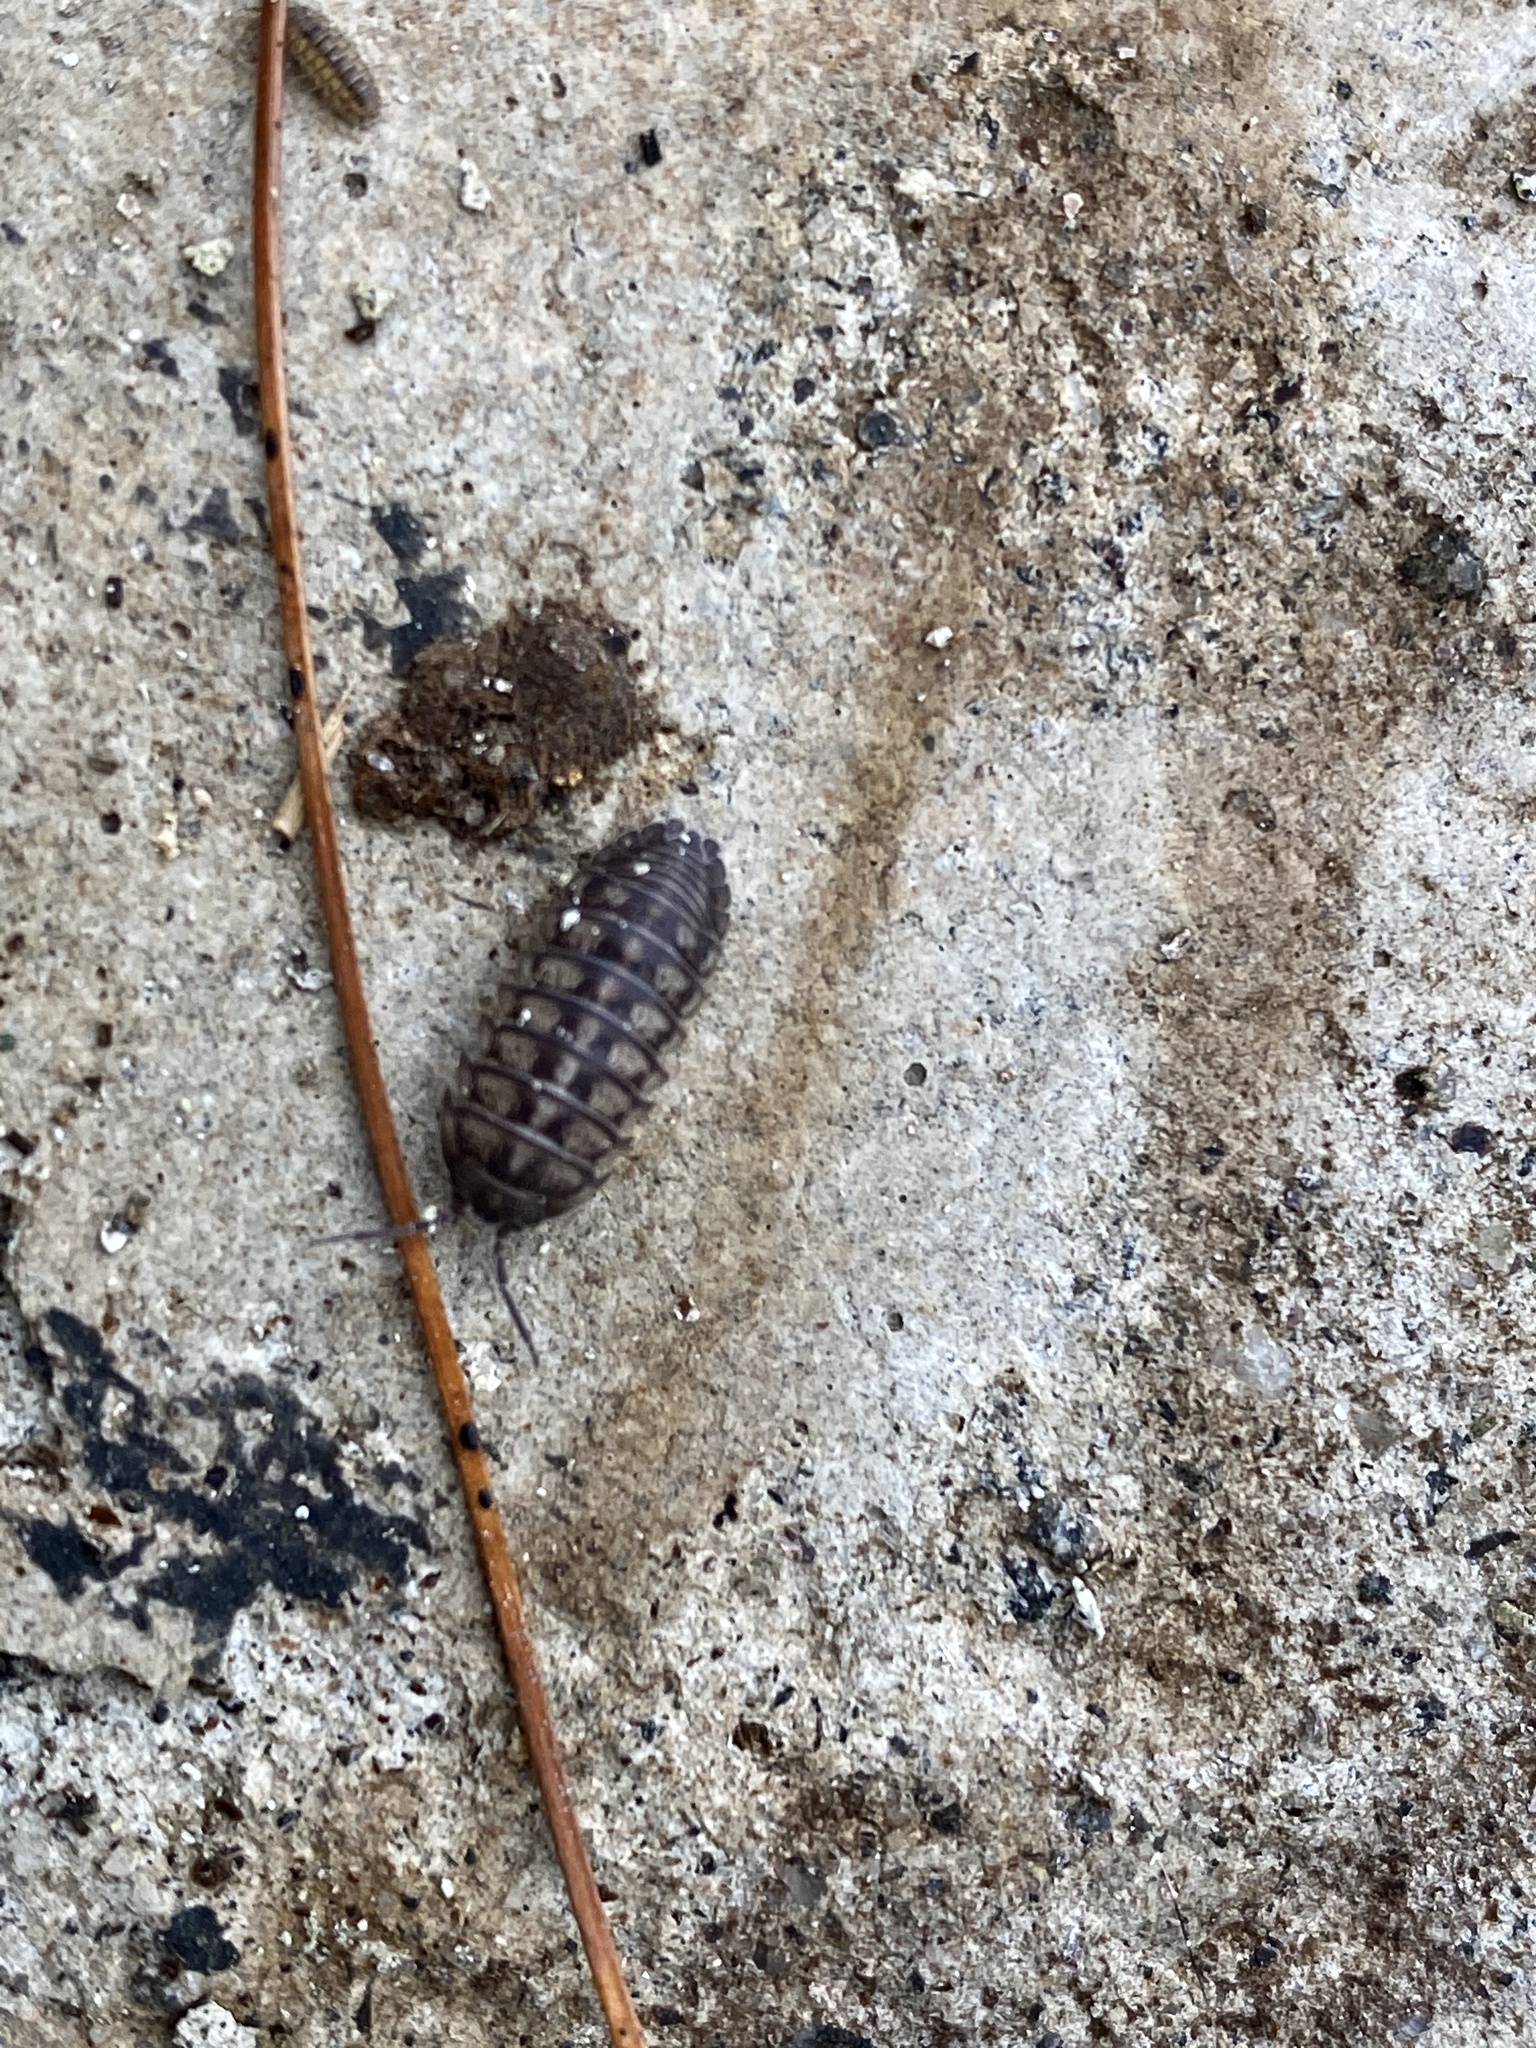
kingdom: Animalia
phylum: Arthropoda
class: Malacostraca
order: Isopoda
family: Armadillidiidae
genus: Armadillidium
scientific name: Armadillidium nasatum
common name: Isopod
